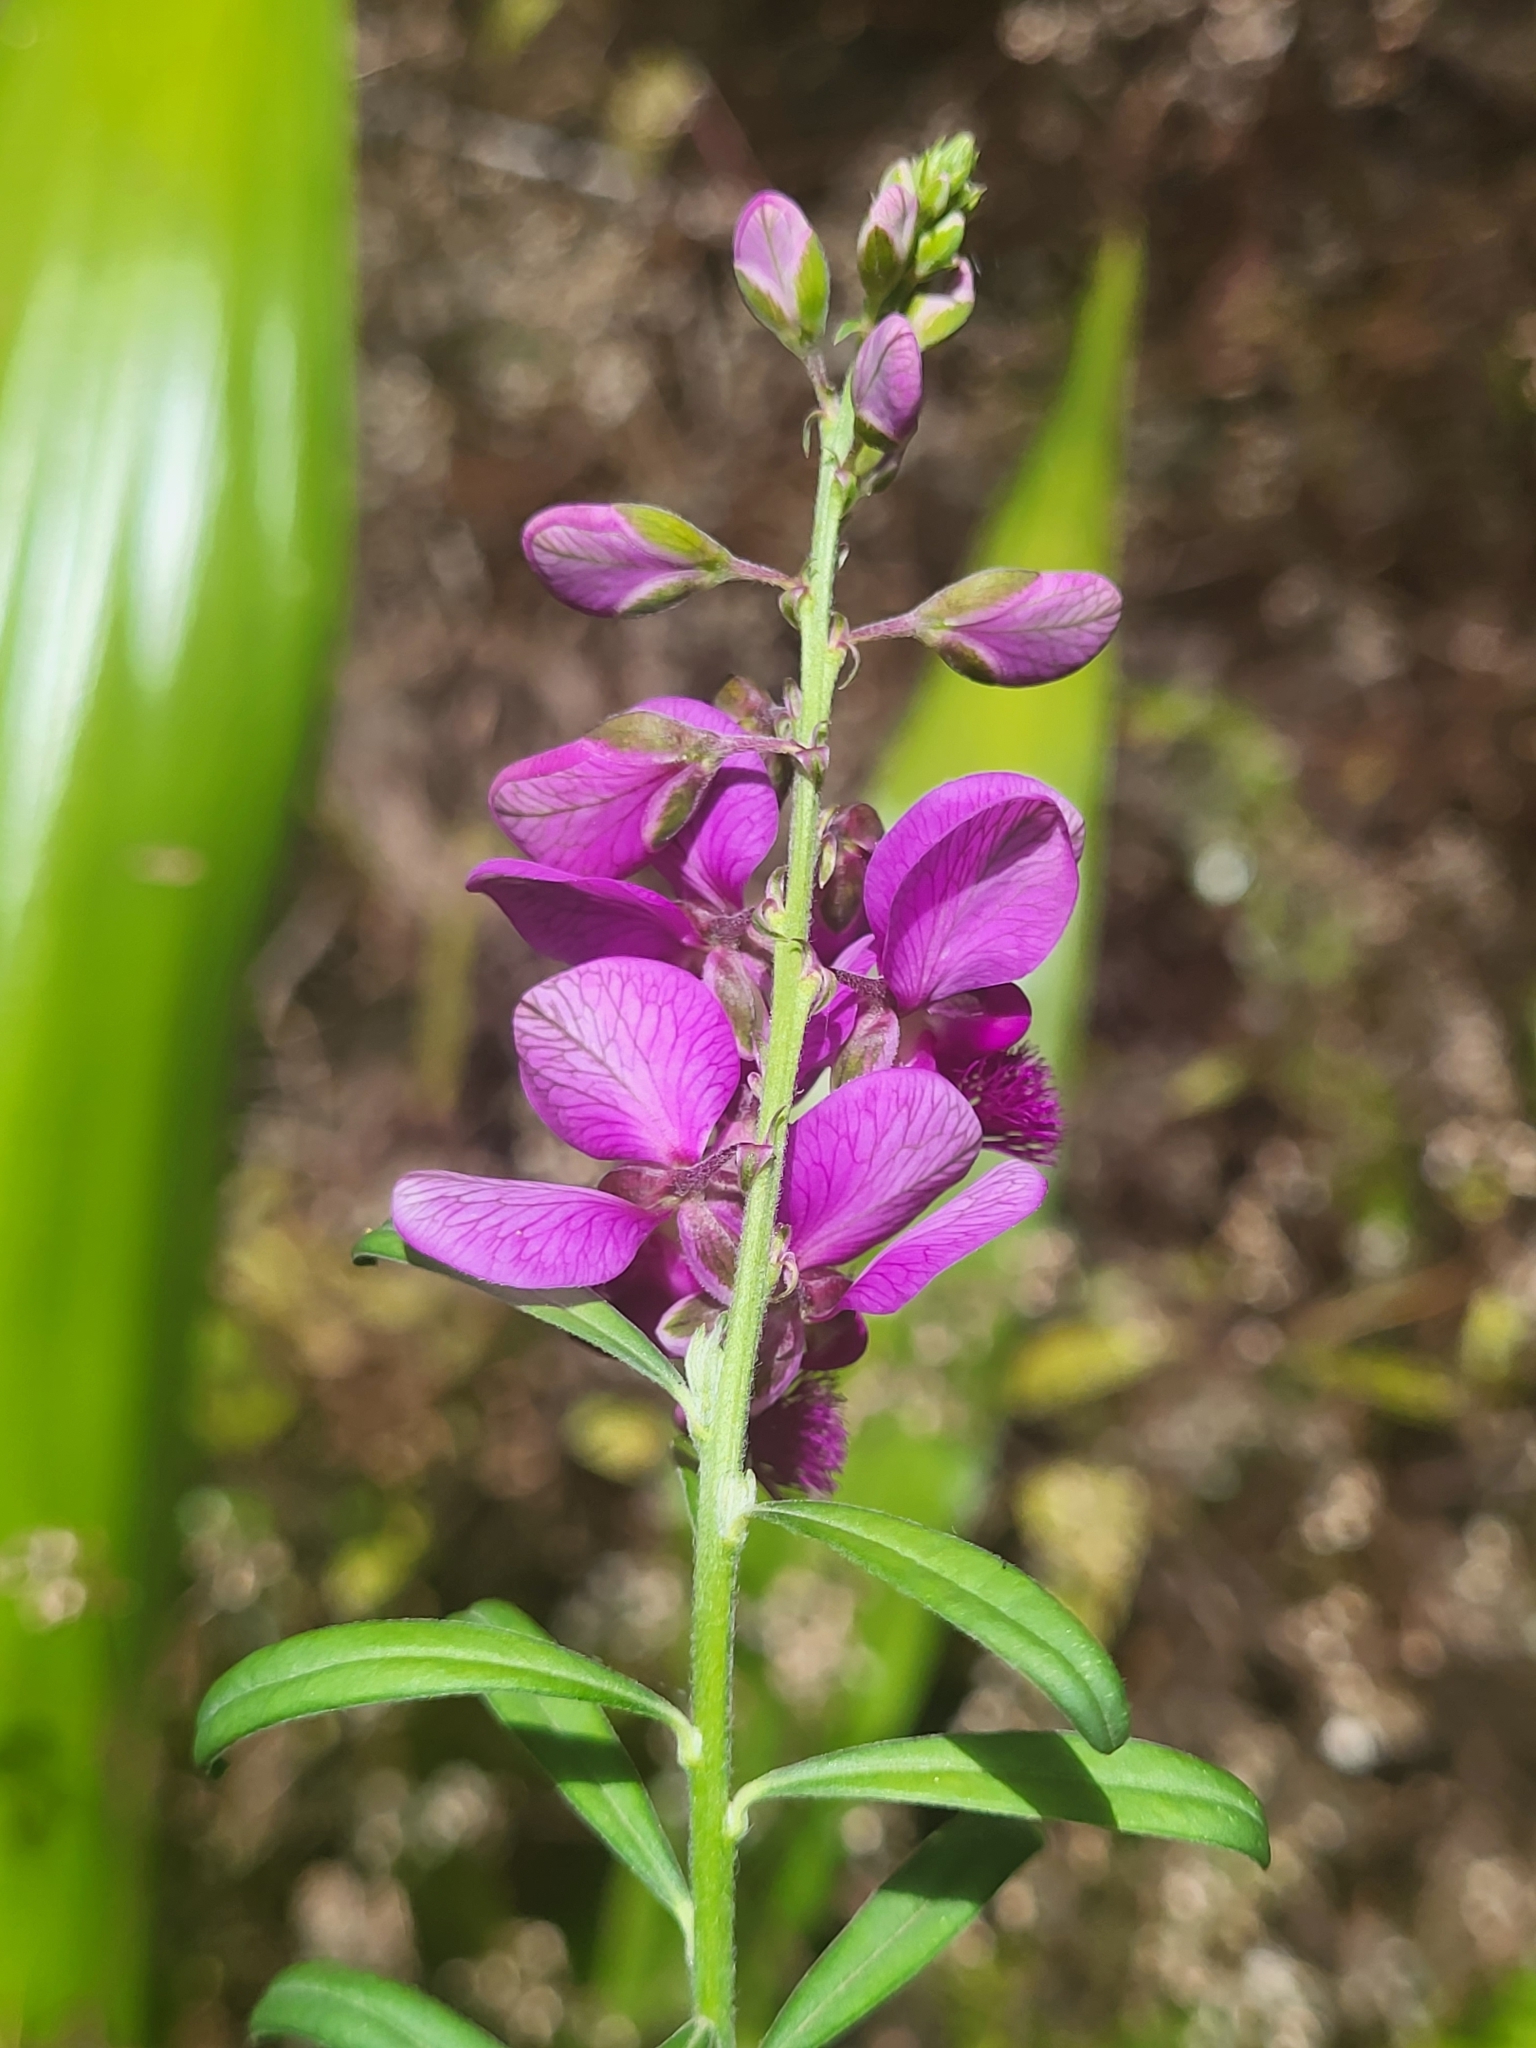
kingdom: Plantae
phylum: Tracheophyta
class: Magnoliopsida
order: Fabales
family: Polygalaceae
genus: Polygala
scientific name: Polygala virgata
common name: Milkwort
